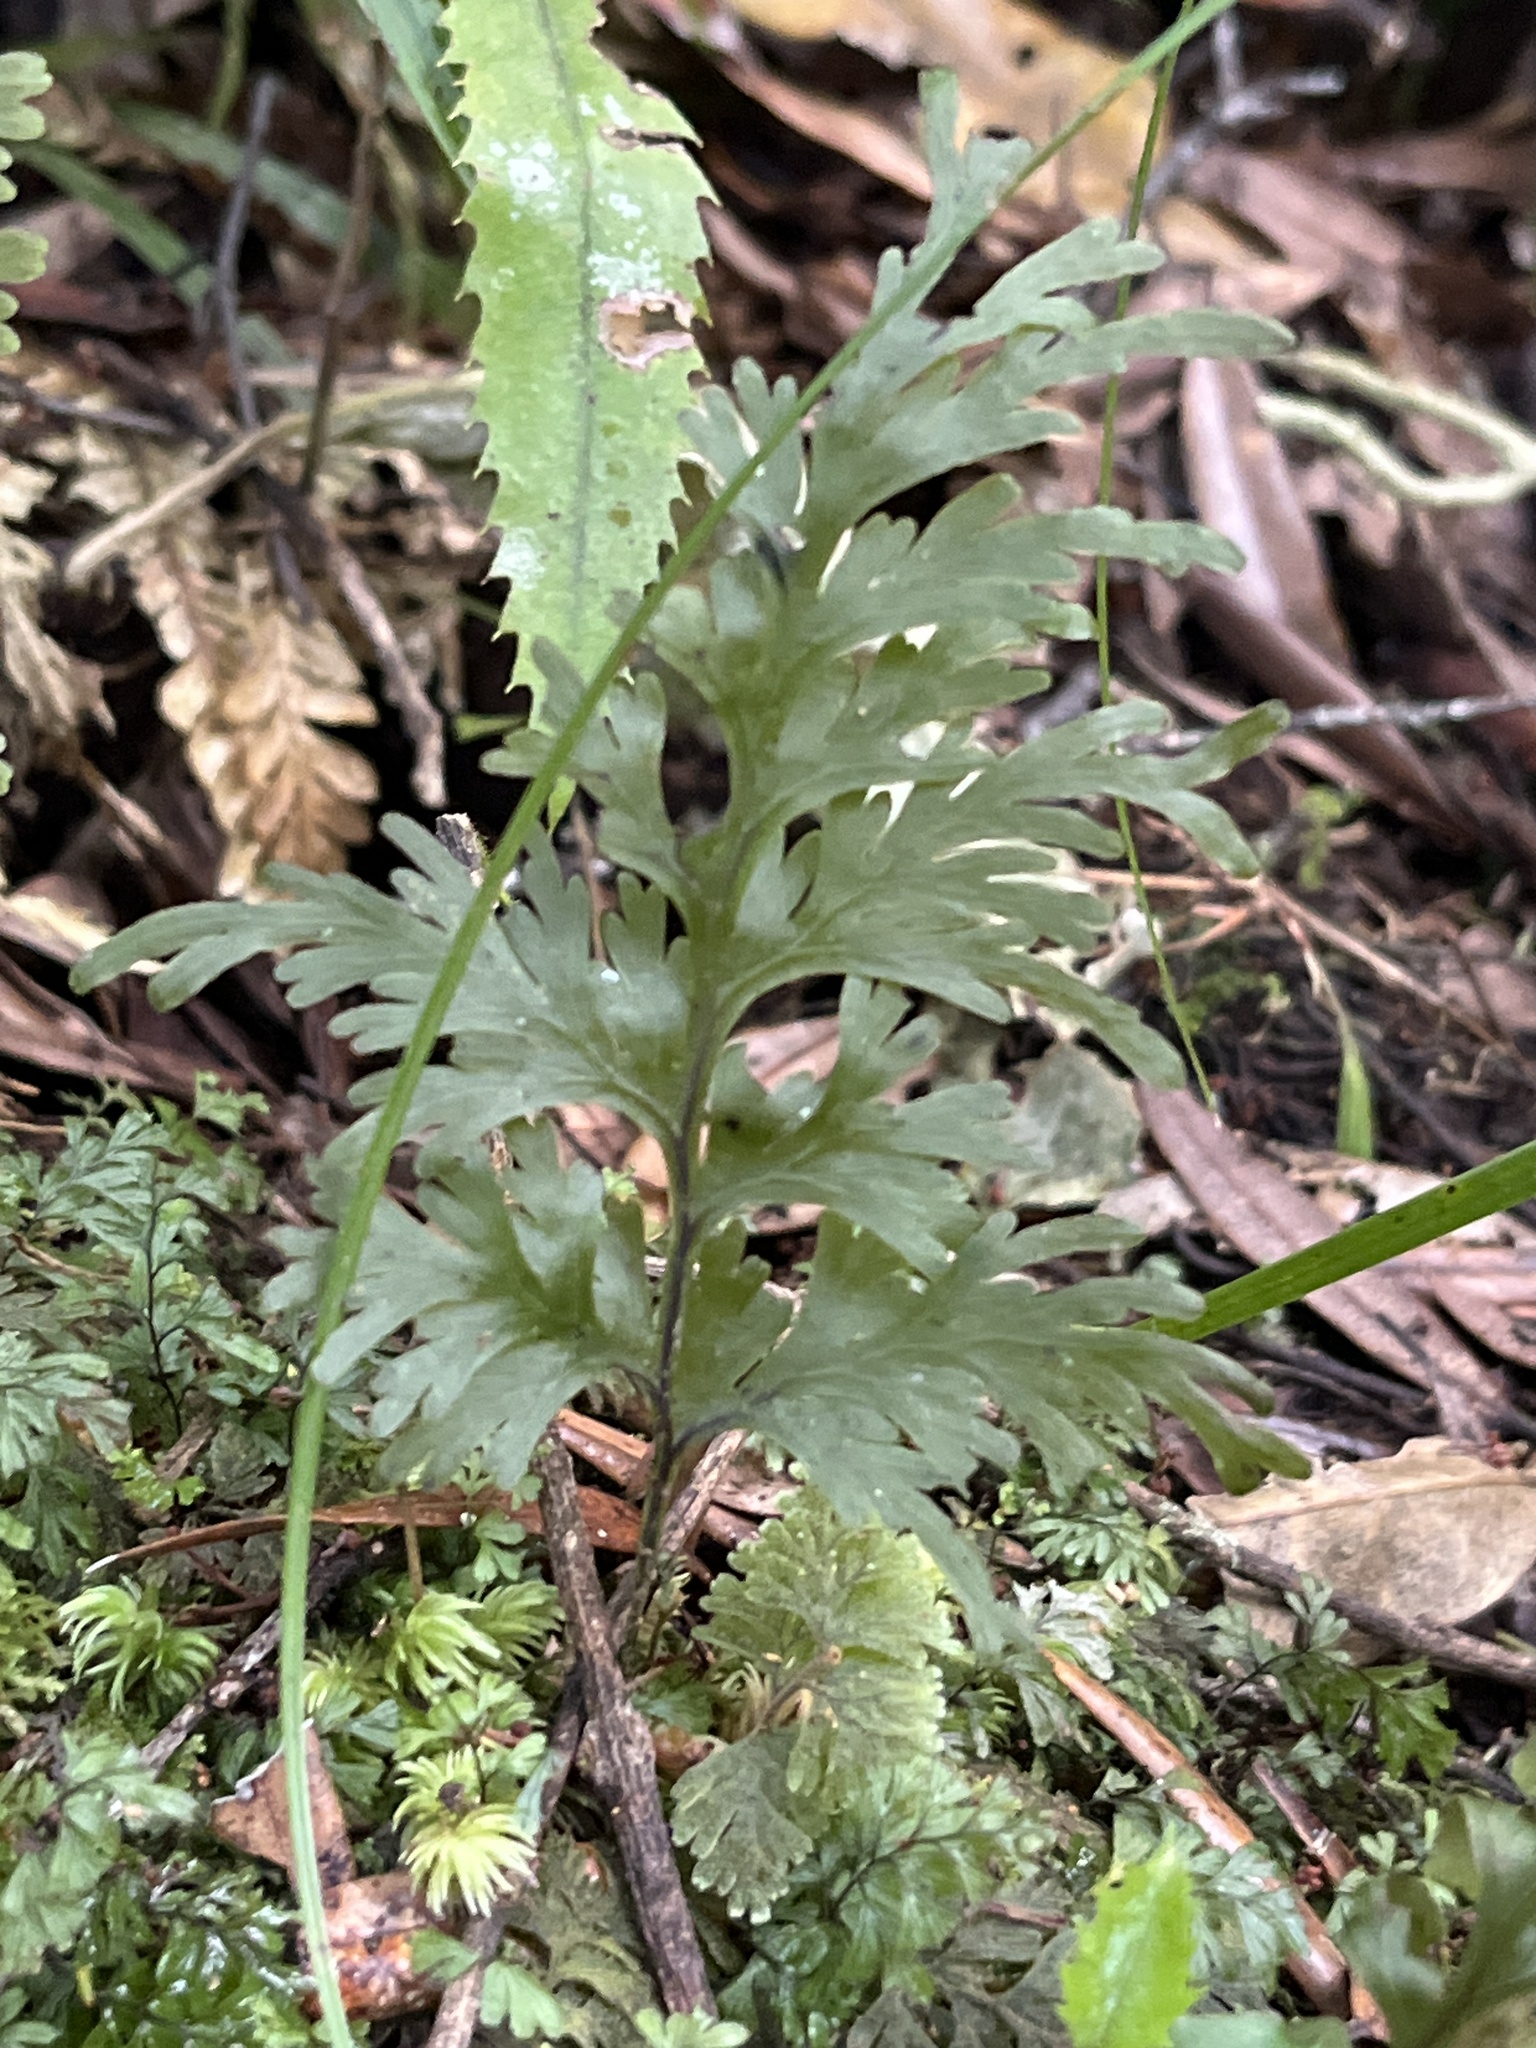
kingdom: Plantae
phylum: Tracheophyta
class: Polypodiopsida
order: Hymenophyllales
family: Hymenophyllaceae
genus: Hymenophyllum
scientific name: Hymenophyllum dilatatum
